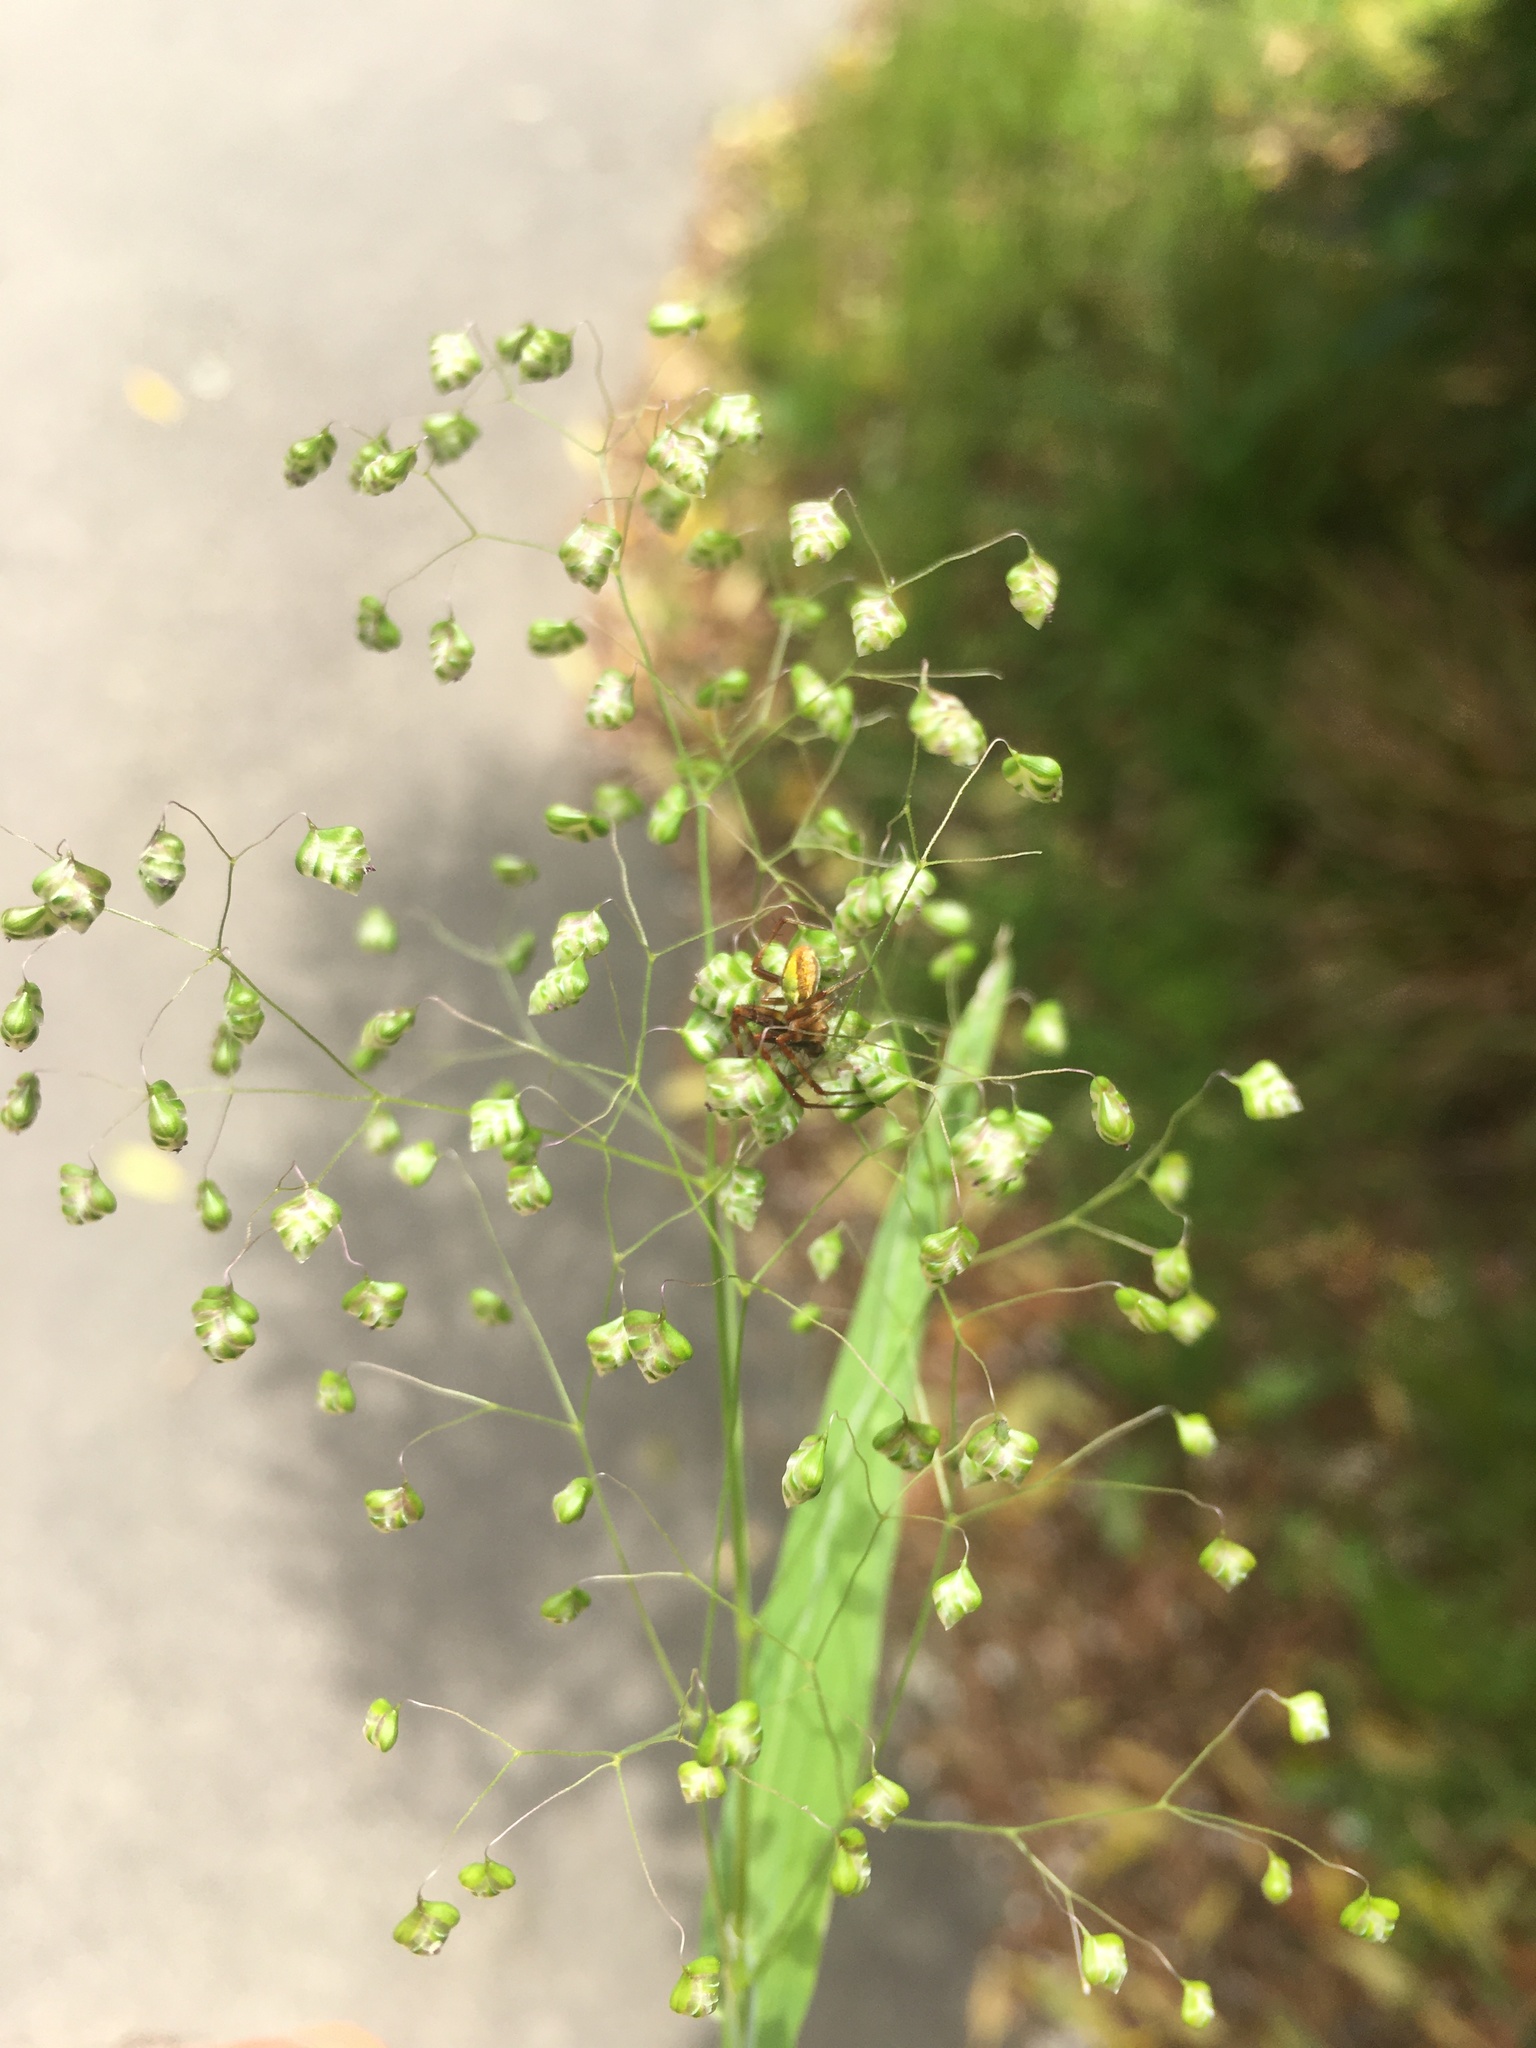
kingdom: Animalia
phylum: Arthropoda
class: Arachnida
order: Araneae
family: Araneidae
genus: Colaranea
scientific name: Colaranea viriditas
